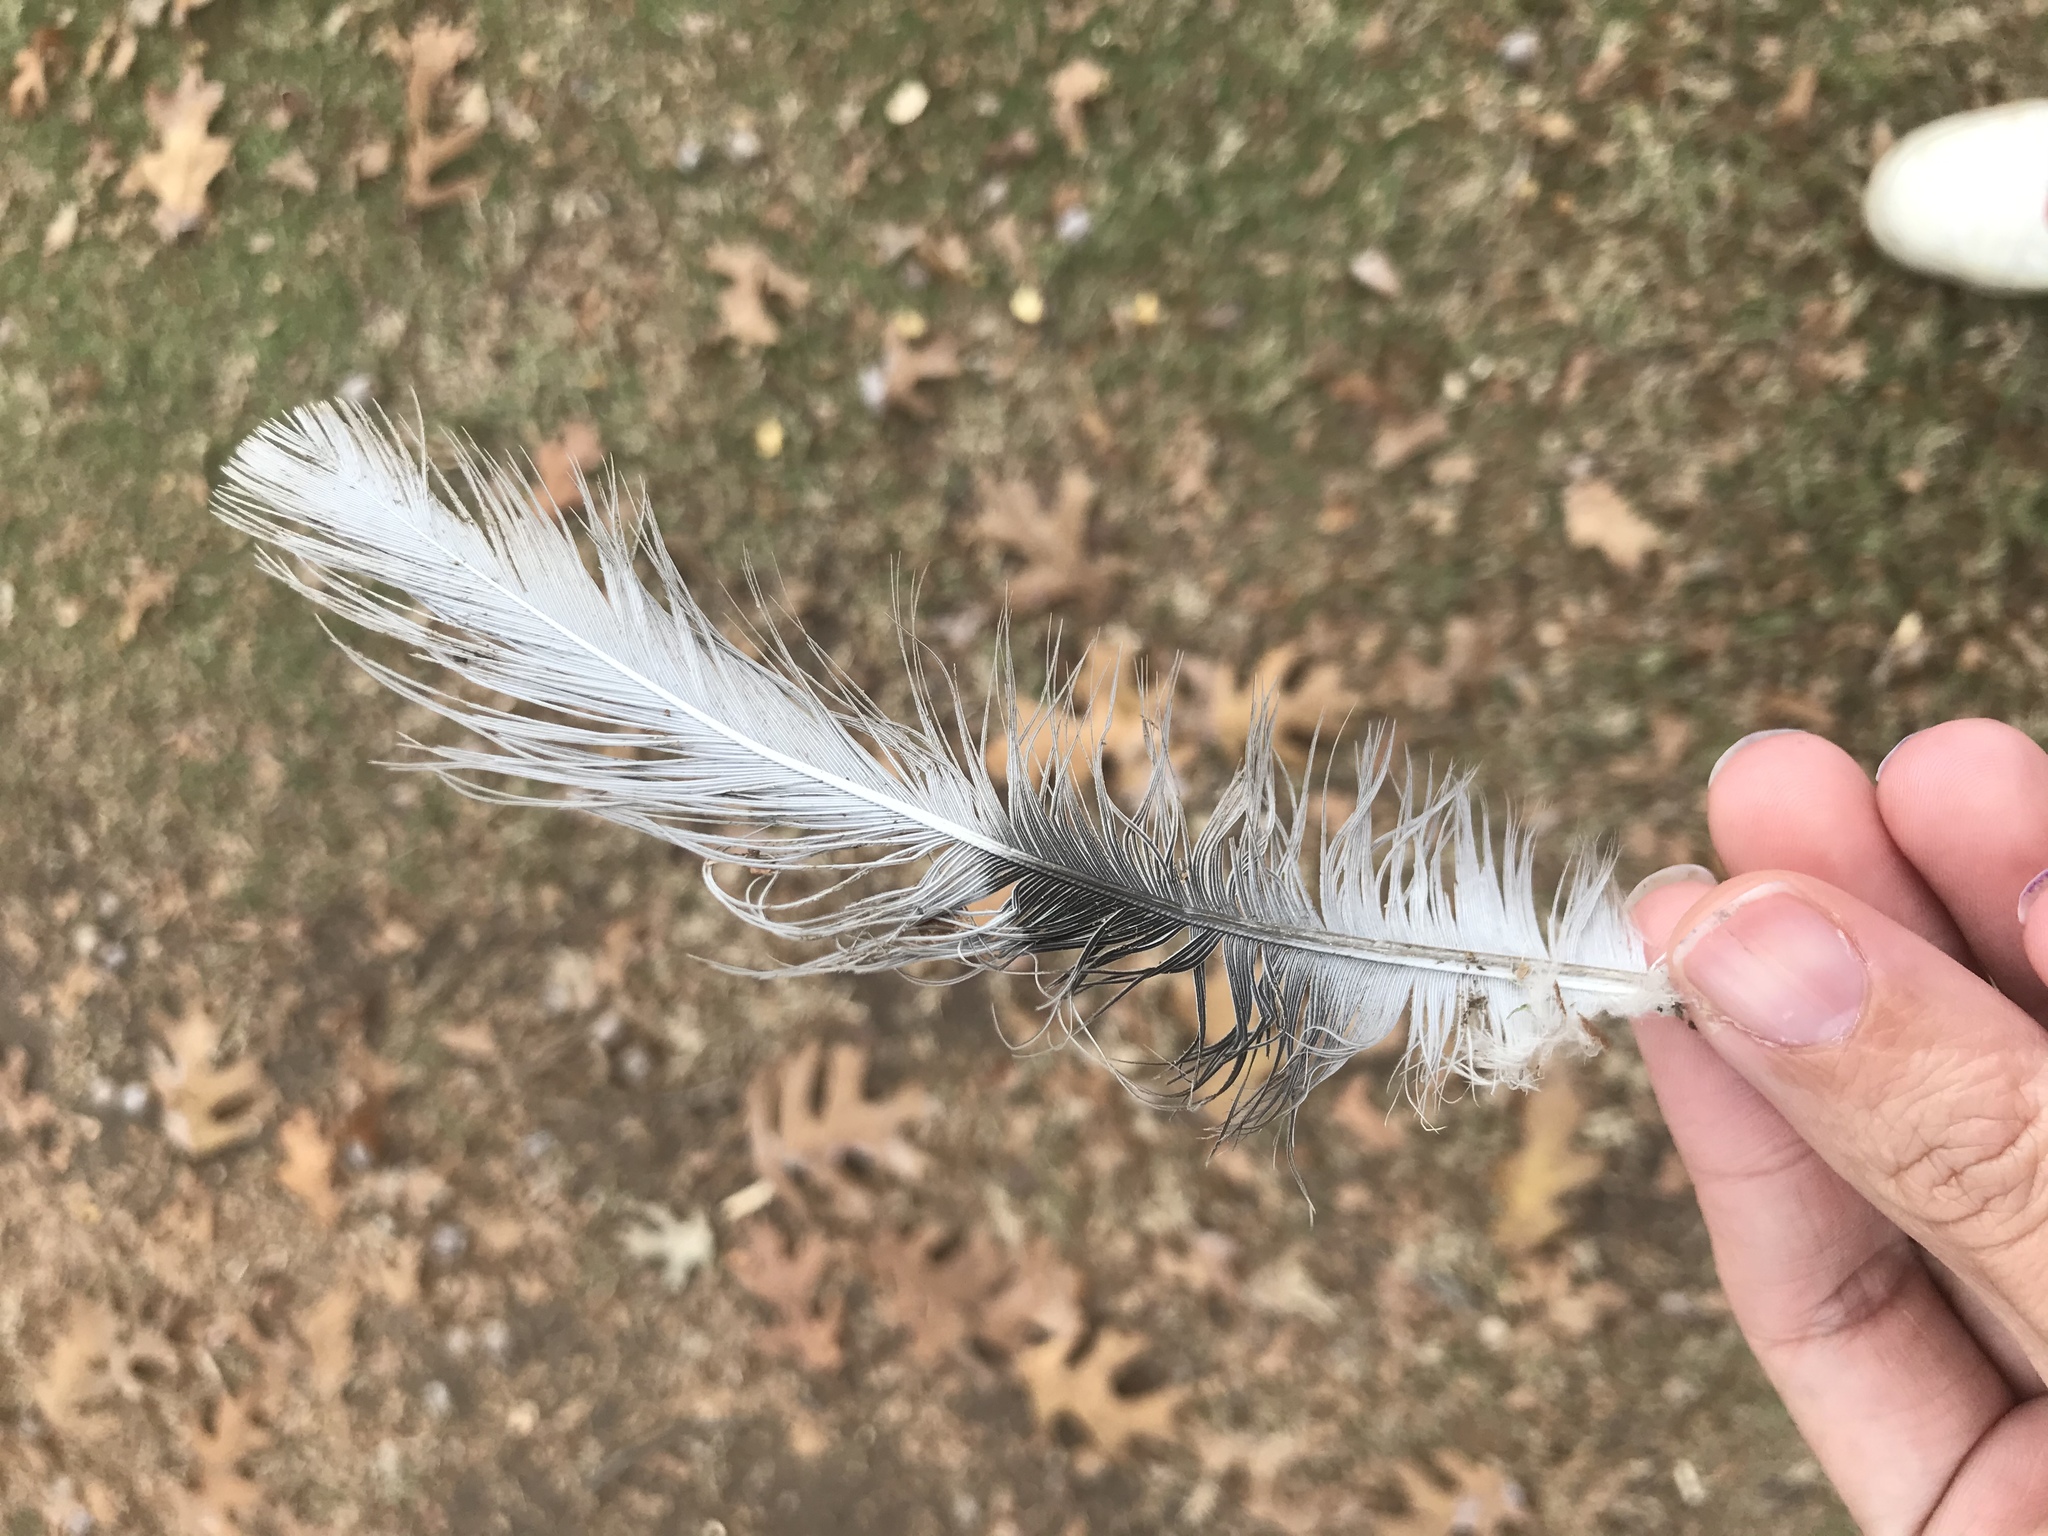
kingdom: Animalia
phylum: Chordata
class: Aves
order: Columbiformes
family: Columbidae
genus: Streptopelia
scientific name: Streptopelia decaocto
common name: Eurasian collared dove
